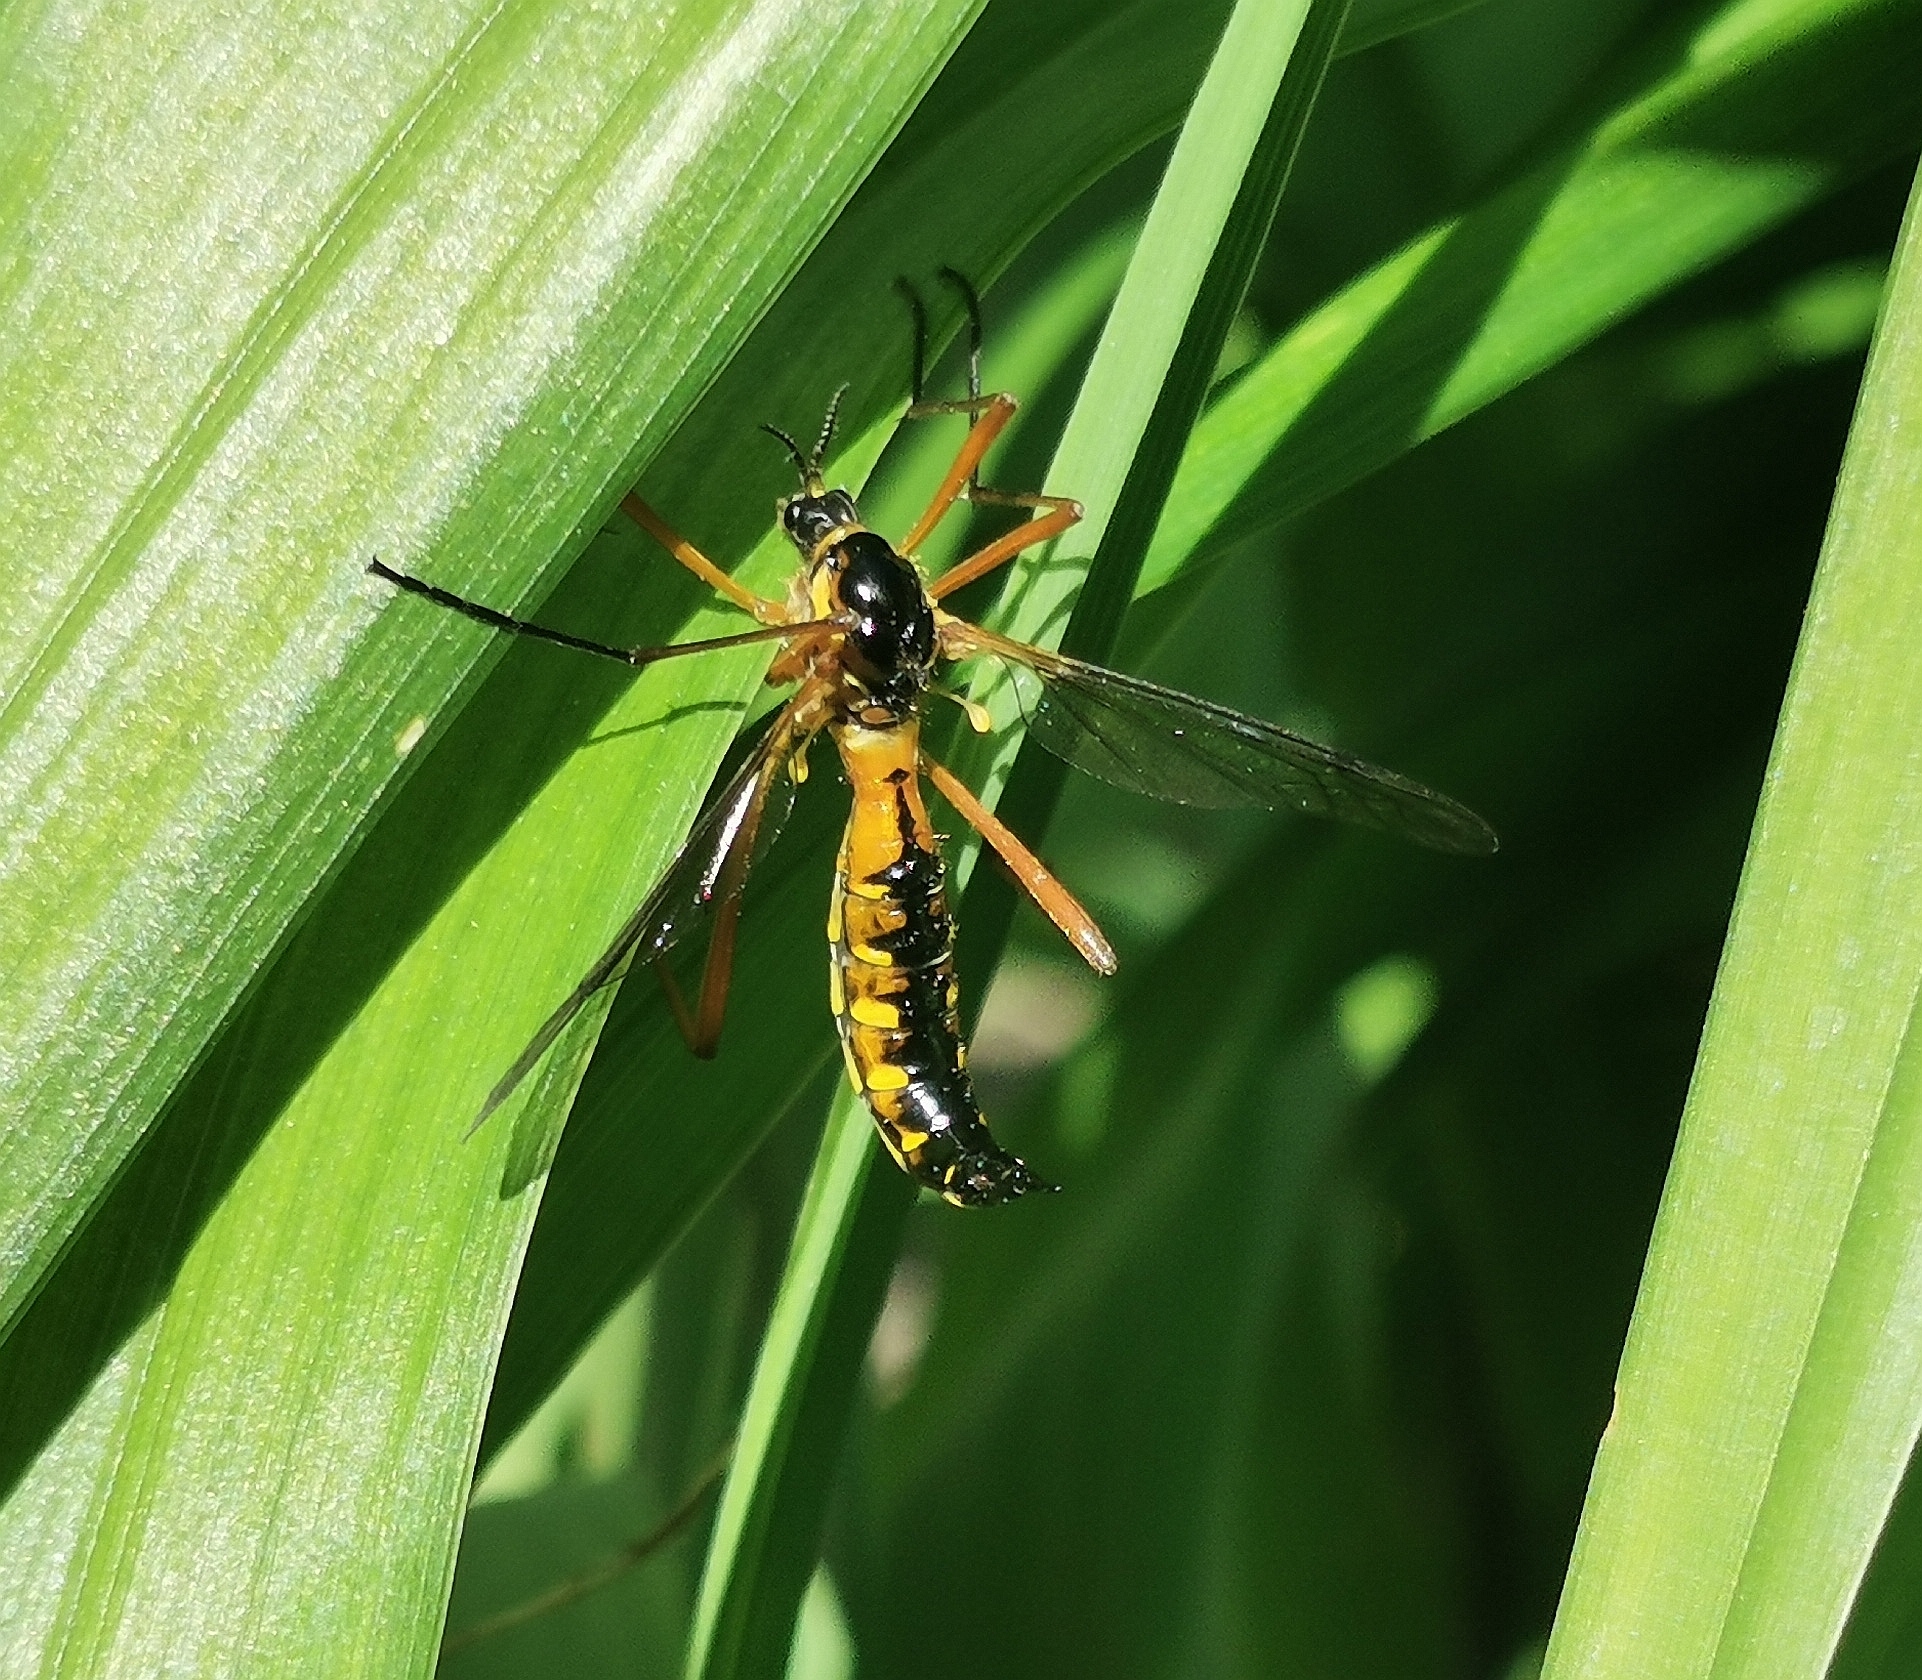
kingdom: Animalia
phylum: Arthropoda
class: Insecta
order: Diptera
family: Tipulidae
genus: Ctenophora
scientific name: Ctenophora pectinicornis
